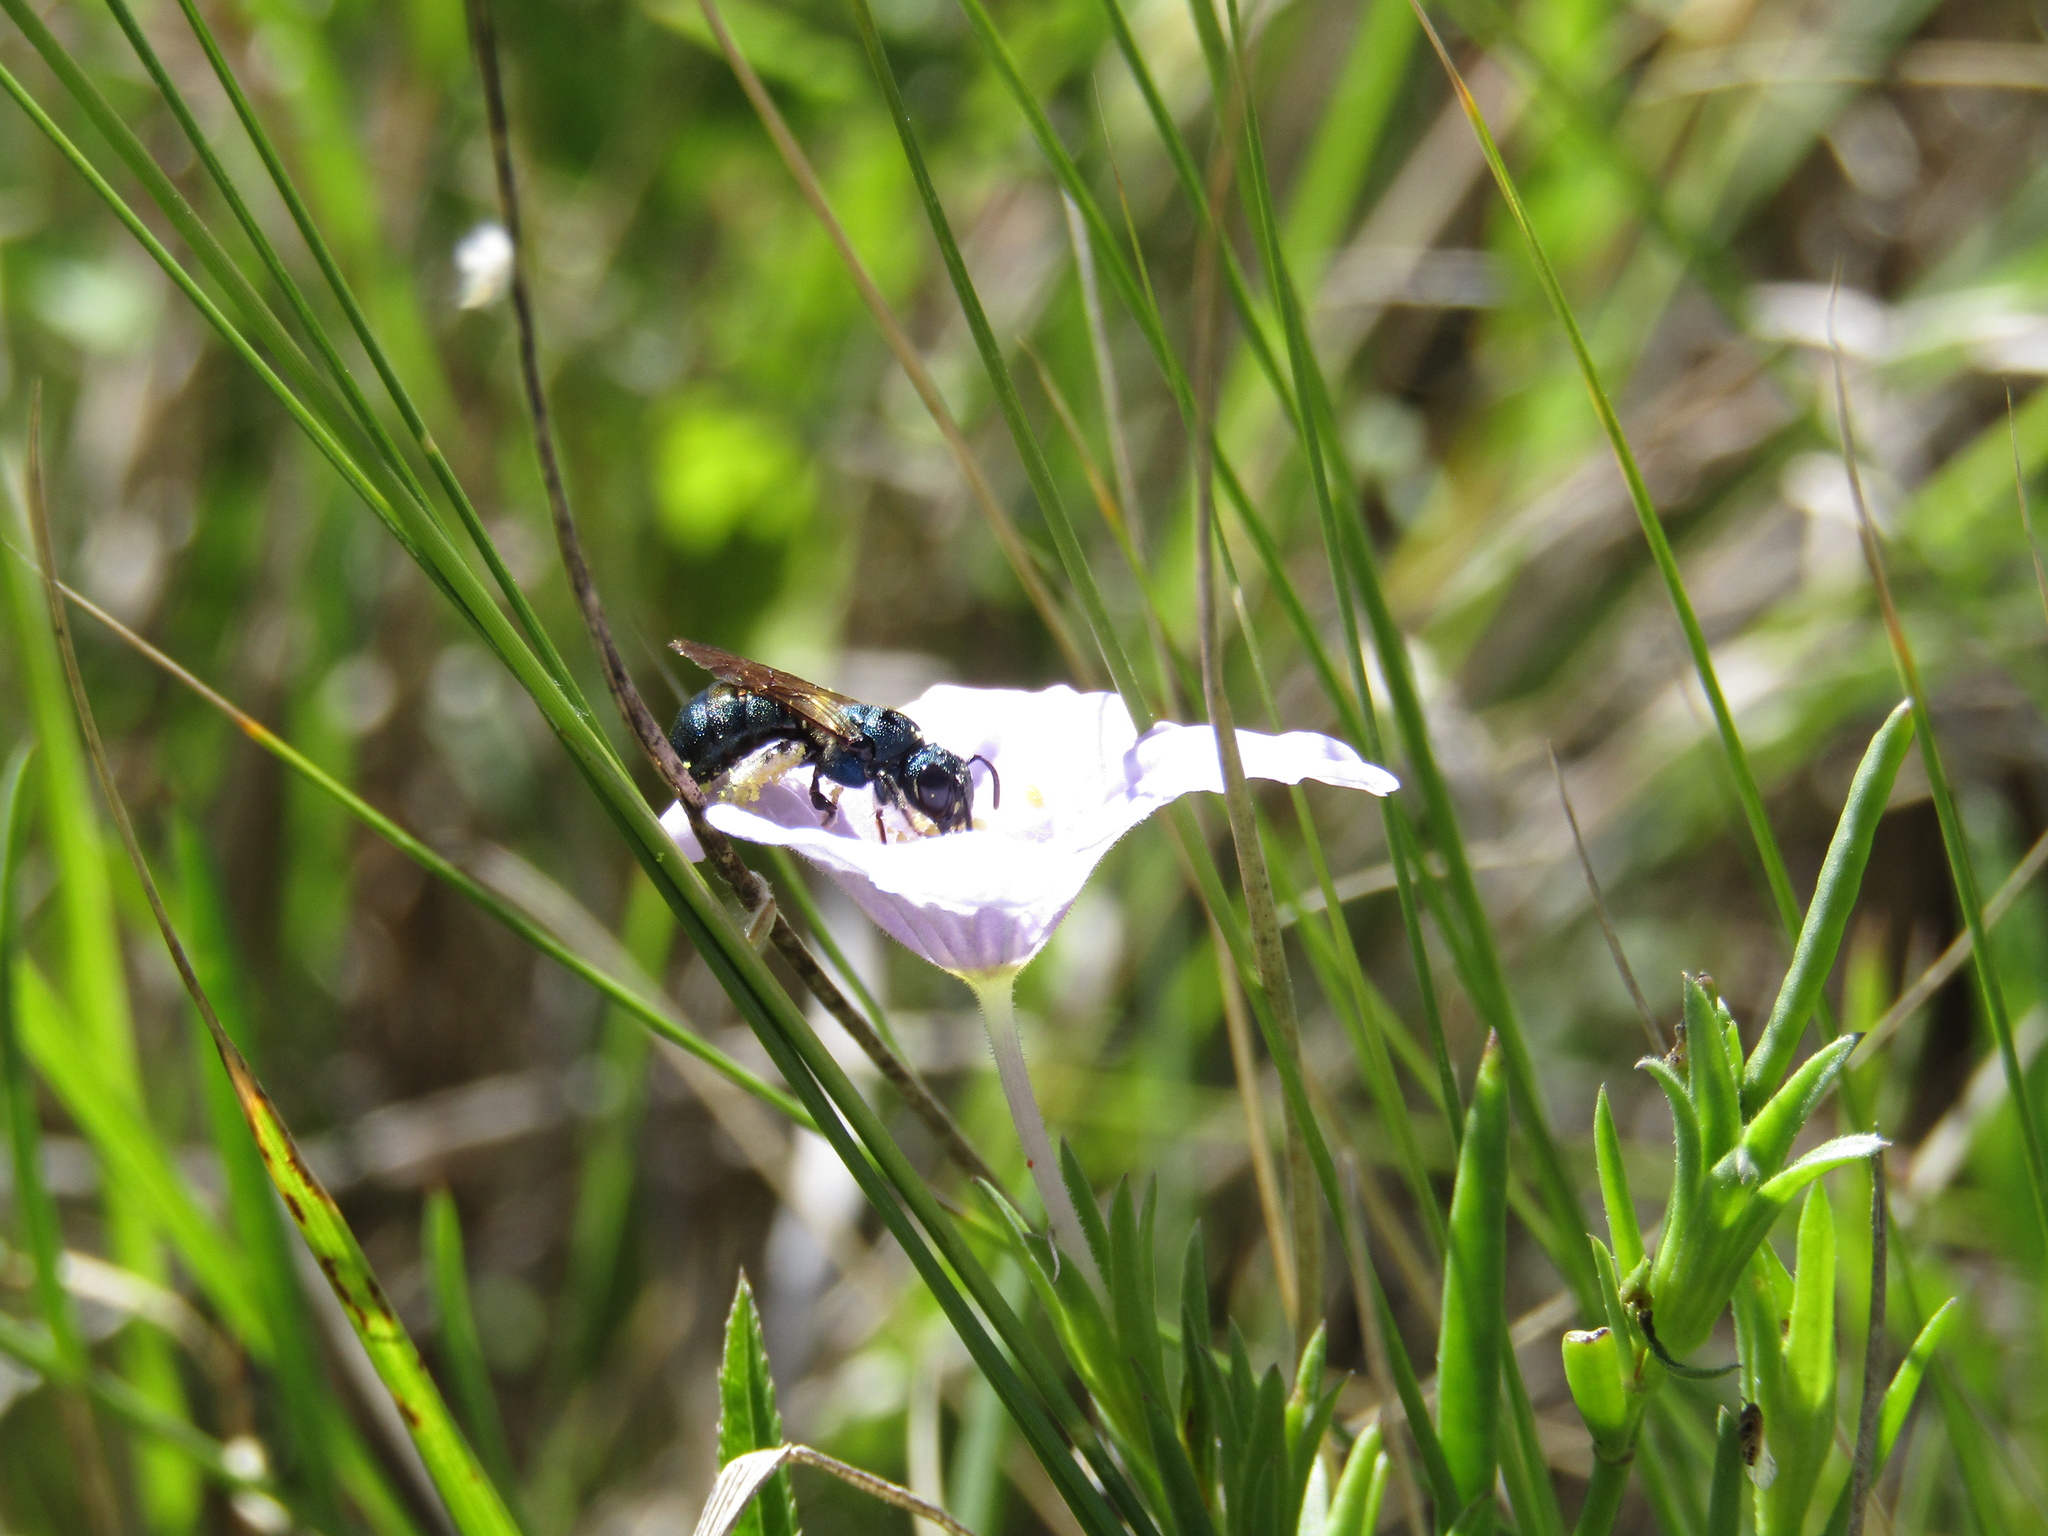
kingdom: Animalia
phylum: Arthropoda
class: Insecta
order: Hymenoptera
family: Apidae
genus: Ceratina
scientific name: Ceratina
